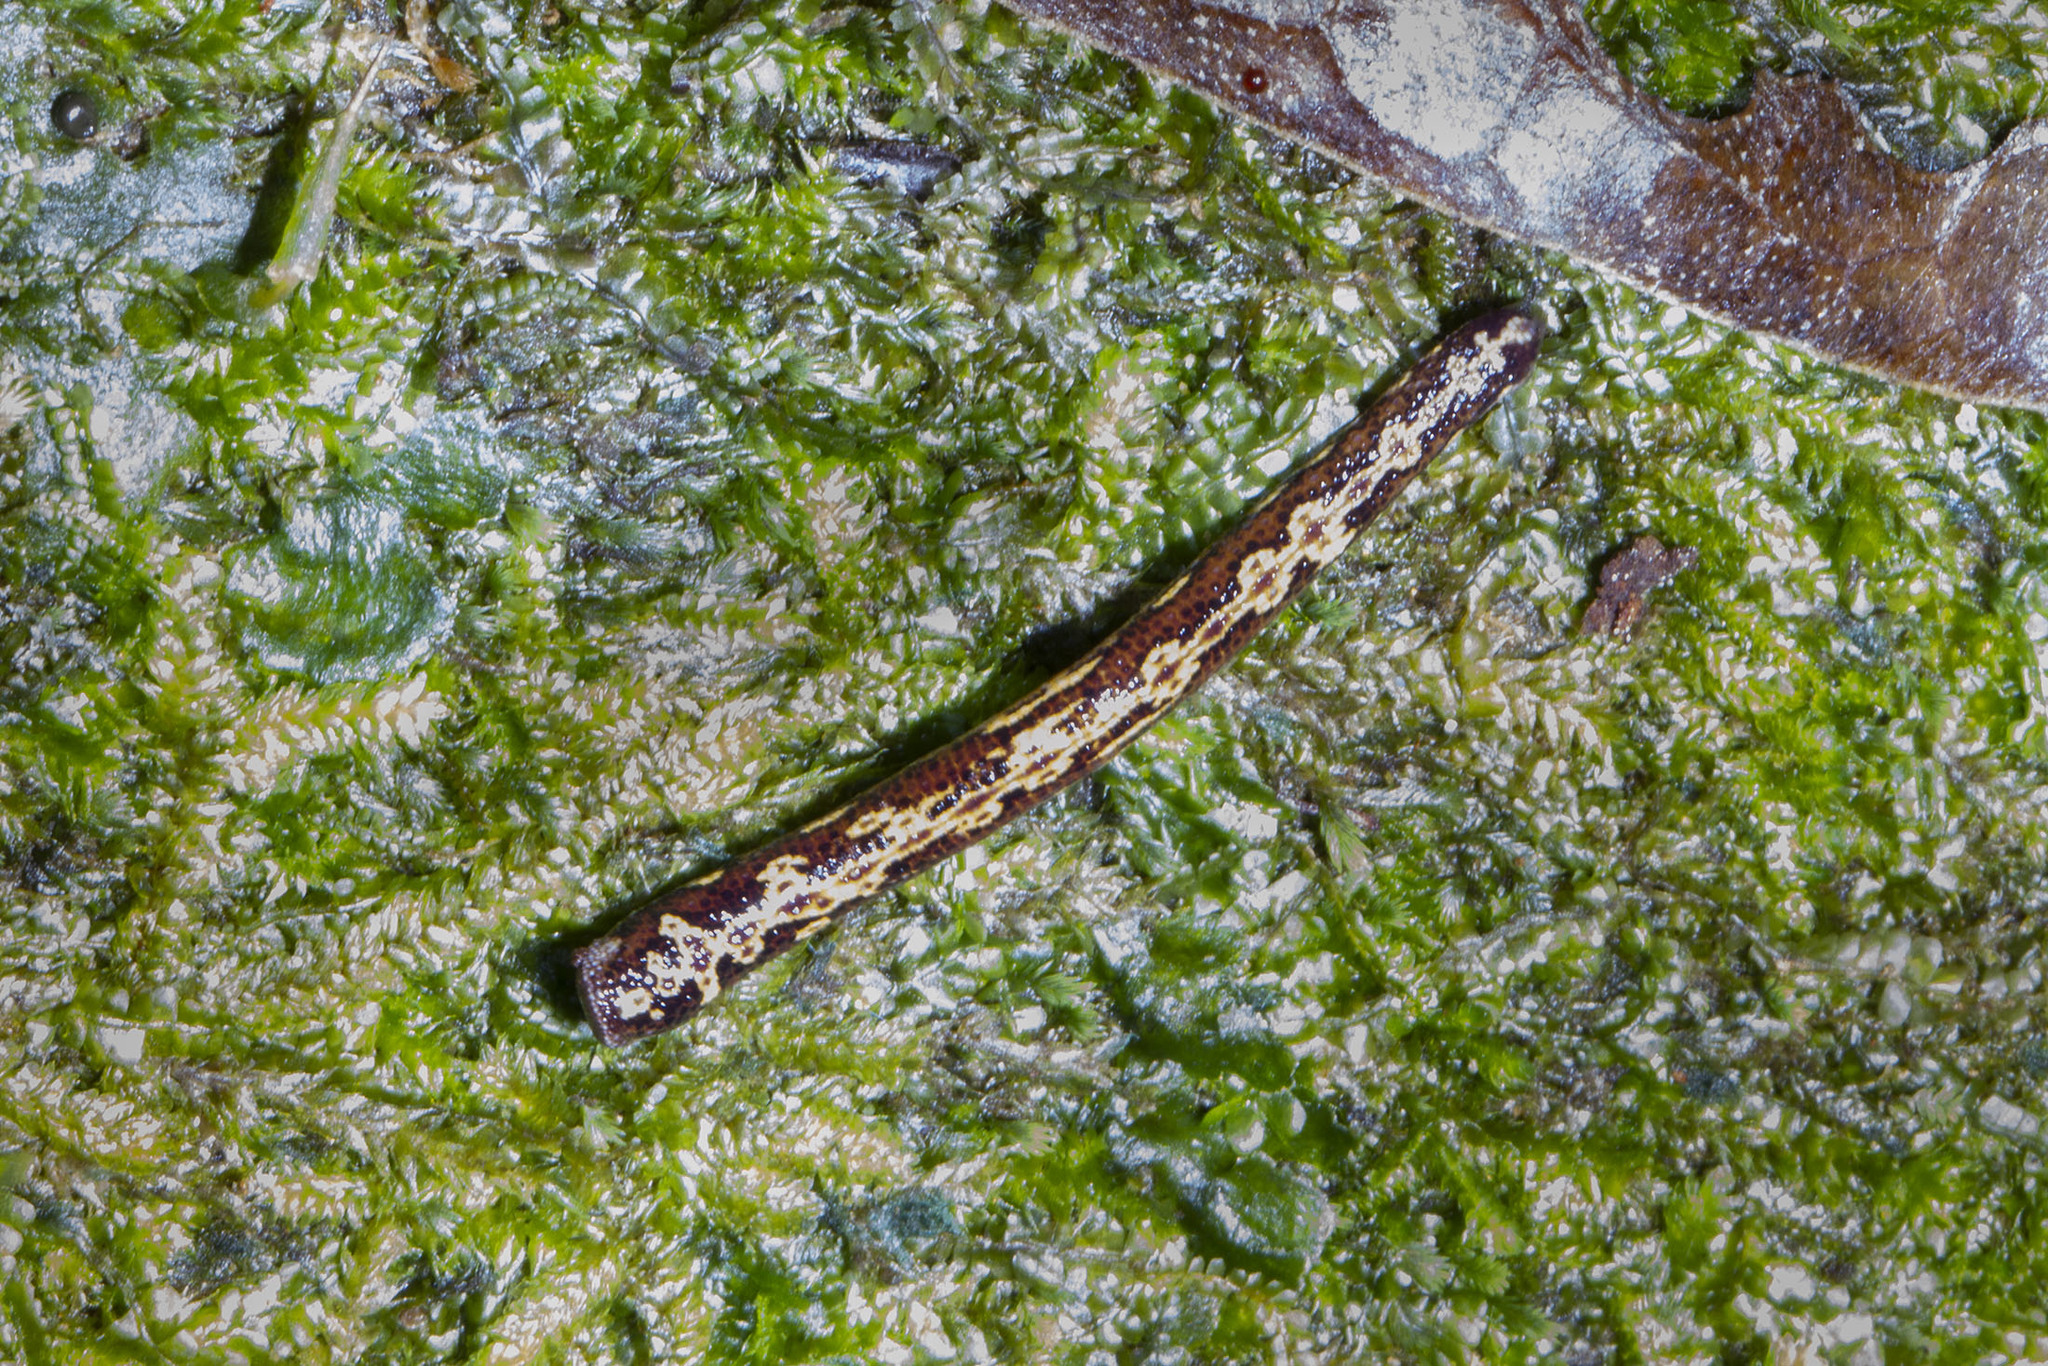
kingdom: Animalia
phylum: Annelida
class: Clitellata
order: Arhynchobdellida
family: Haemadipsidae
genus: Malagabdella
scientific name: Malagabdella niarchosorum
